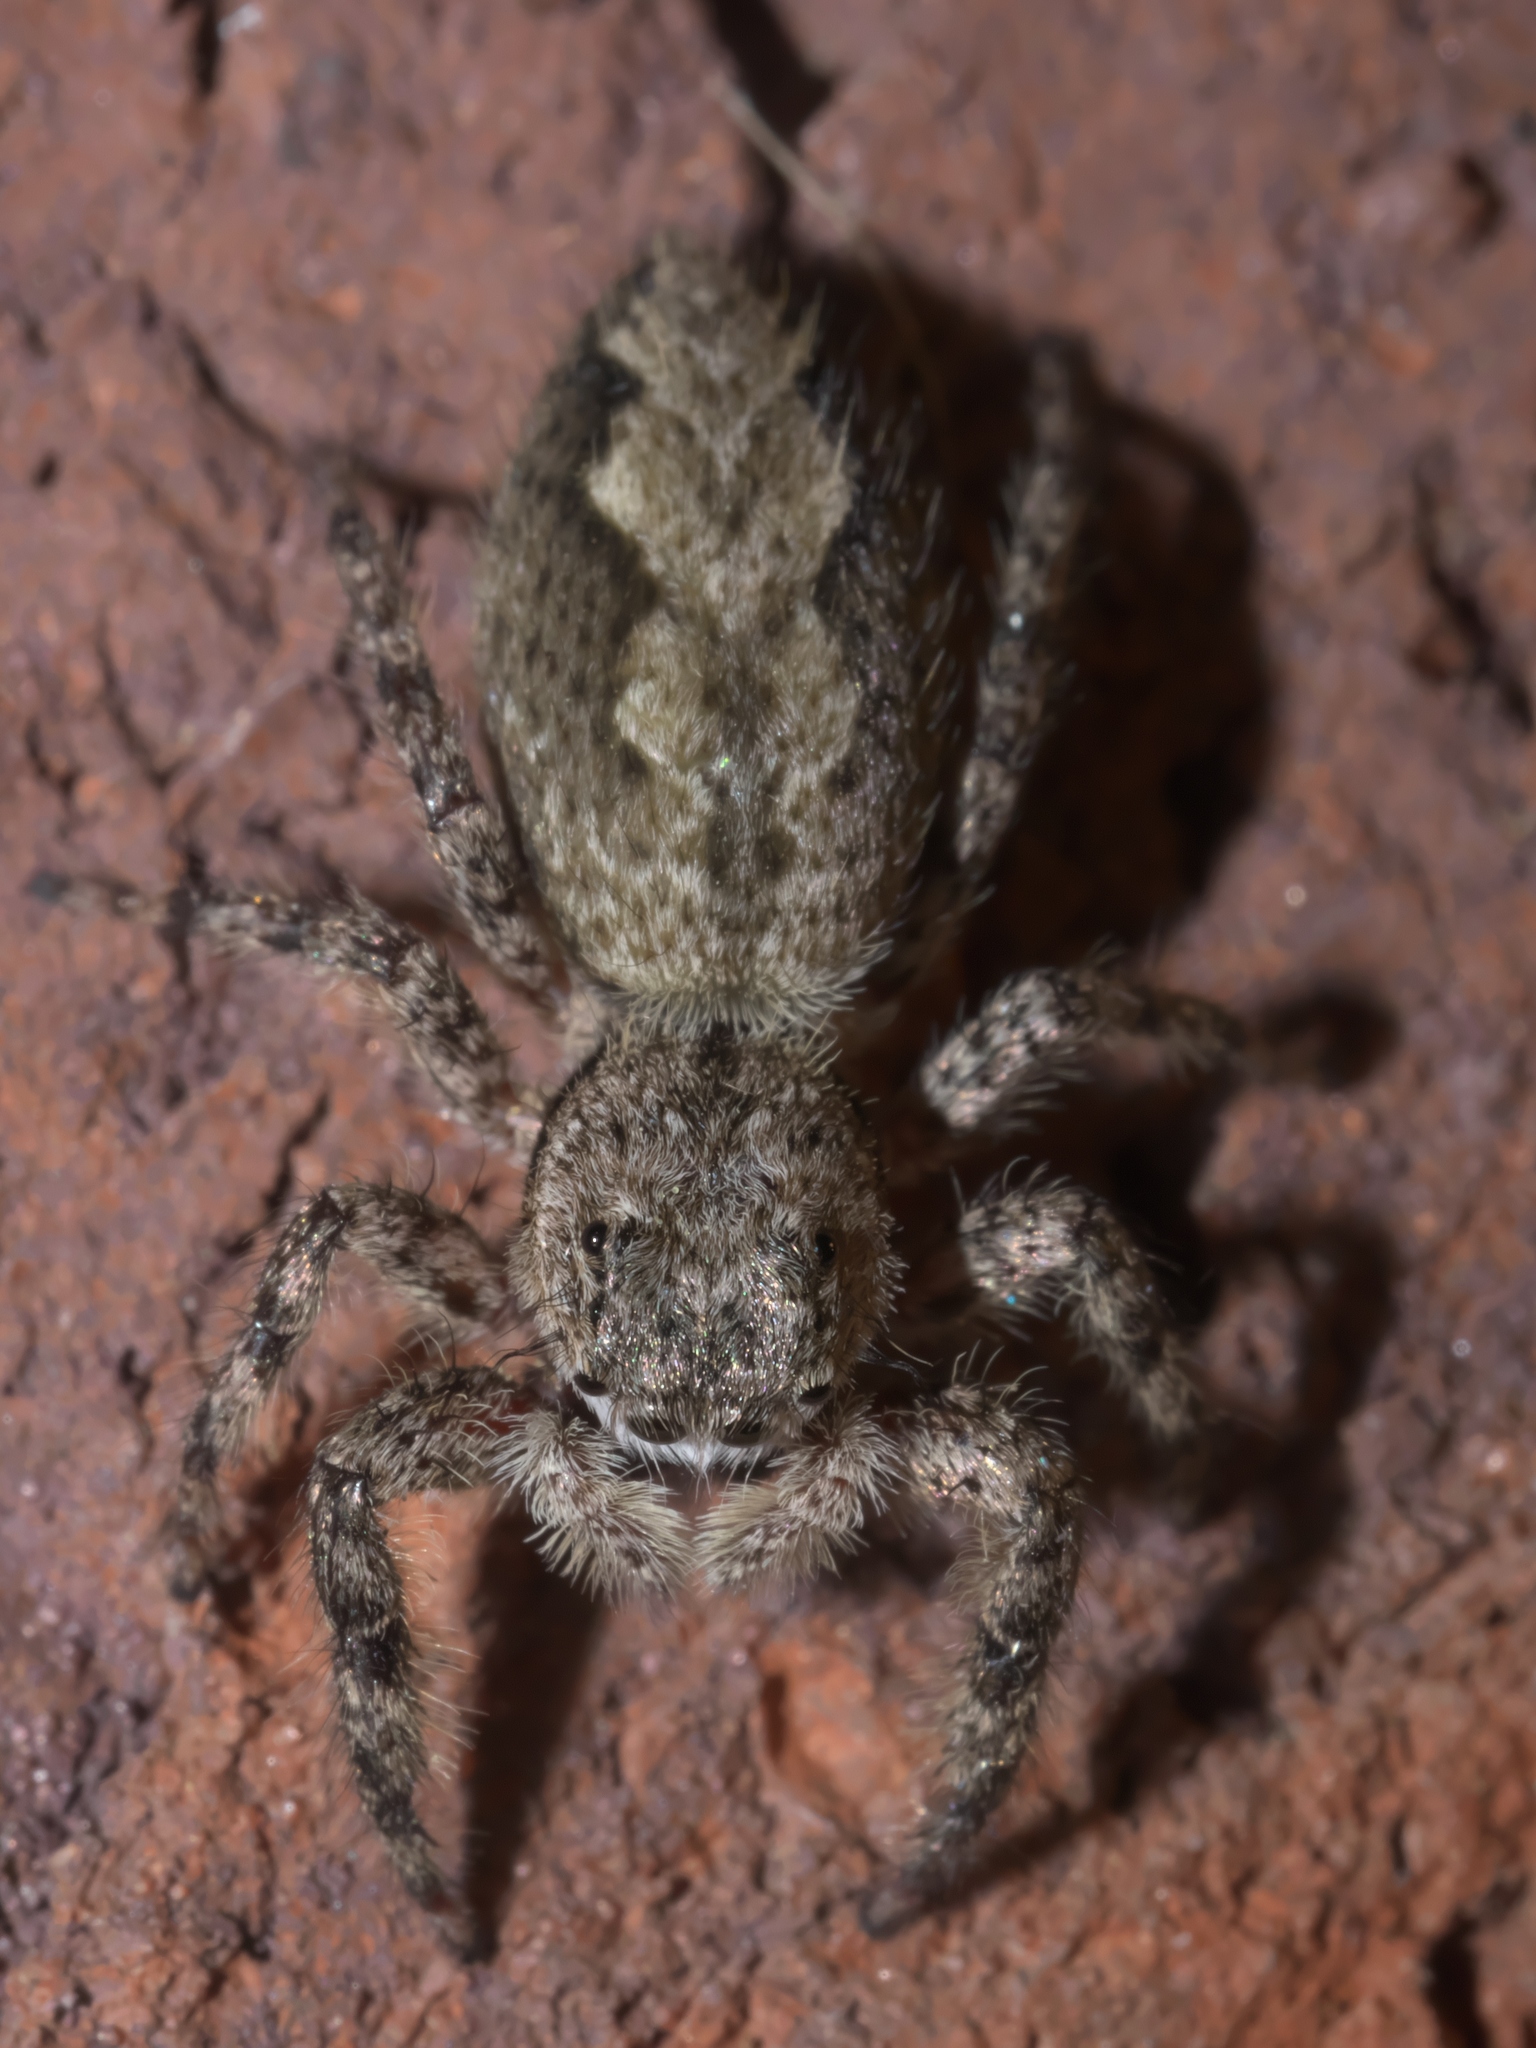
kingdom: Animalia
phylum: Arthropoda
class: Arachnida
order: Araneae
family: Salticidae
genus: Platycryptus
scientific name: Platycryptus undatus
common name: Tan jumping spider
